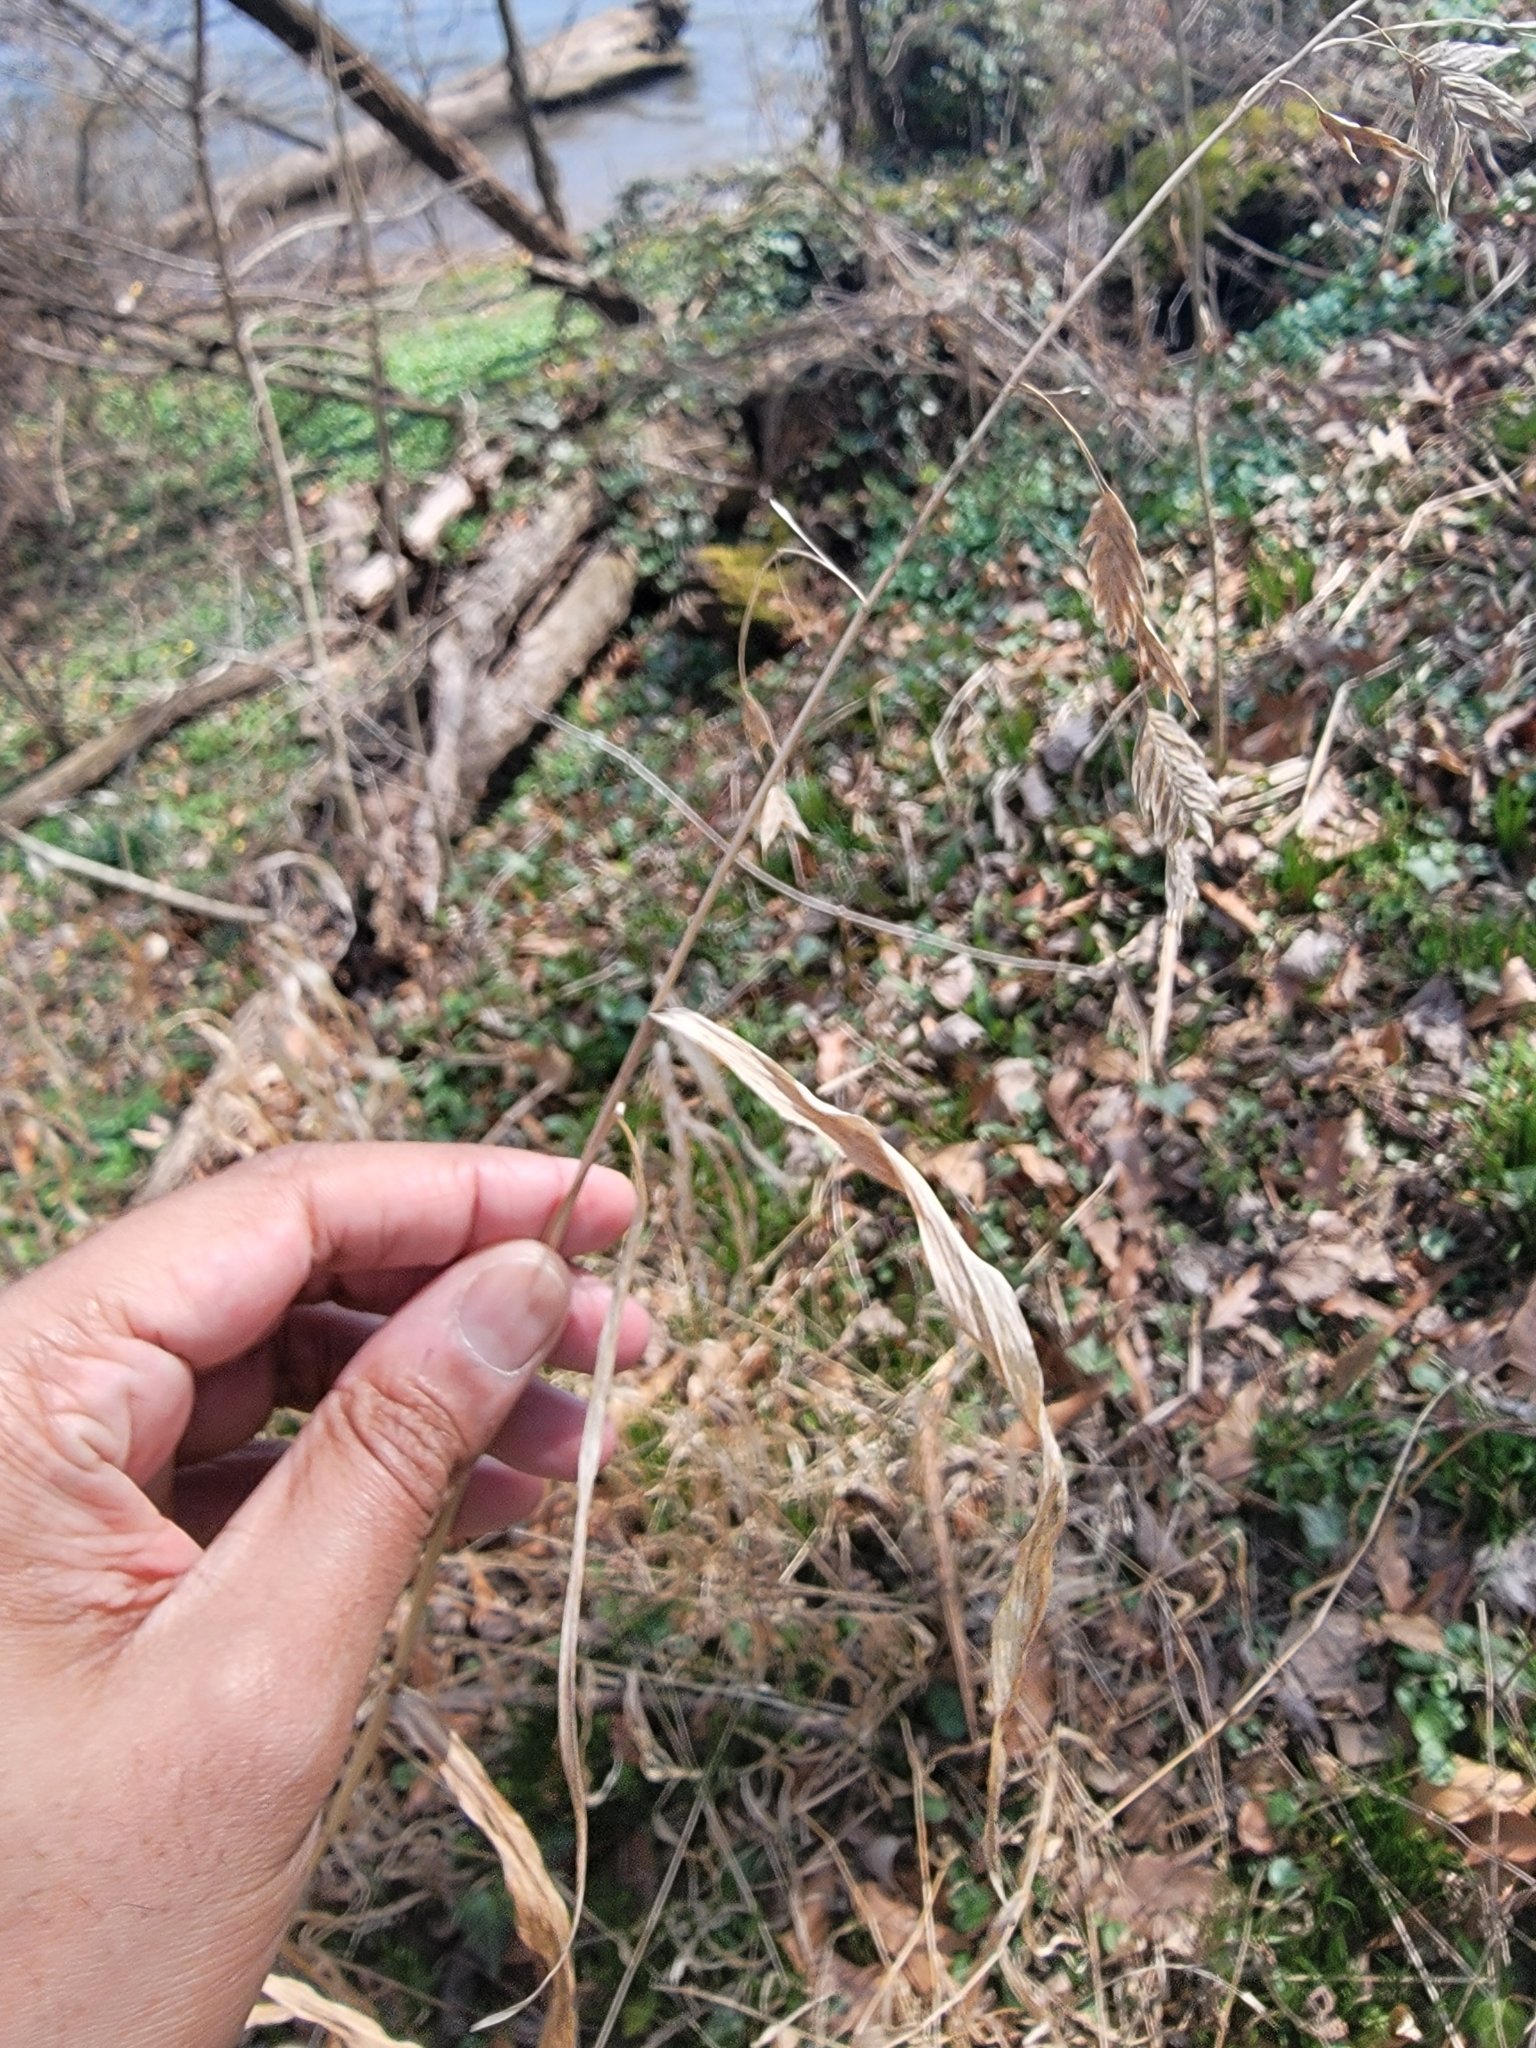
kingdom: Plantae
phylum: Tracheophyta
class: Liliopsida
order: Poales
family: Poaceae
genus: Chasmanthium
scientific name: Chasmanthium latifolium
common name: Broad-leaved chasmanthium
